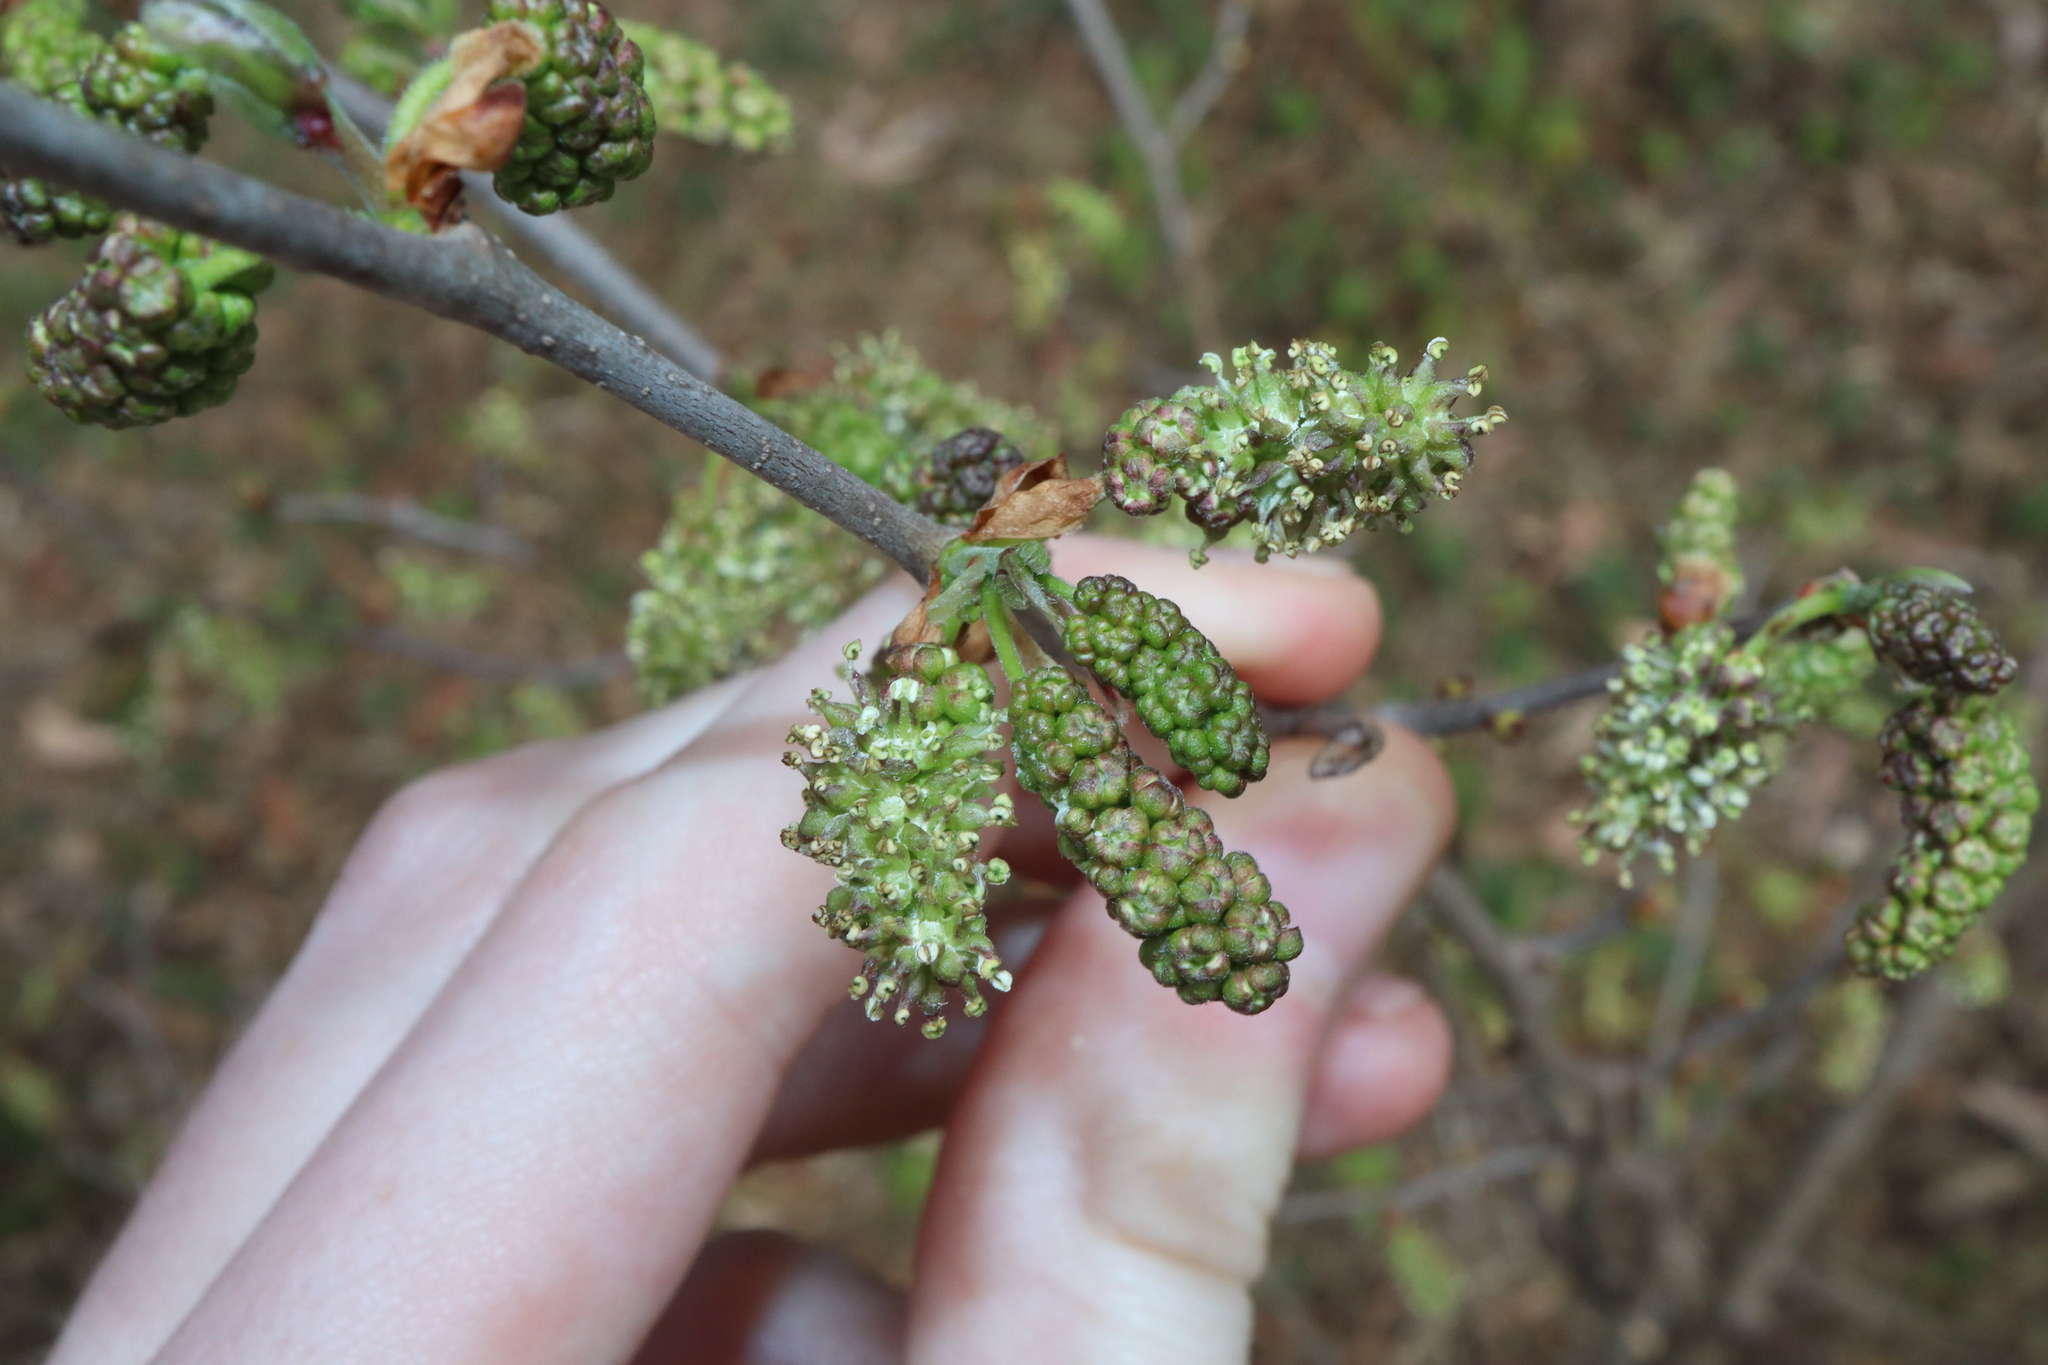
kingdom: Plantae
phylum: Tracheophyta
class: Magnoliopsida
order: Rosales
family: Moraceae
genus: Morus
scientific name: Morus alba
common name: White mulberry
